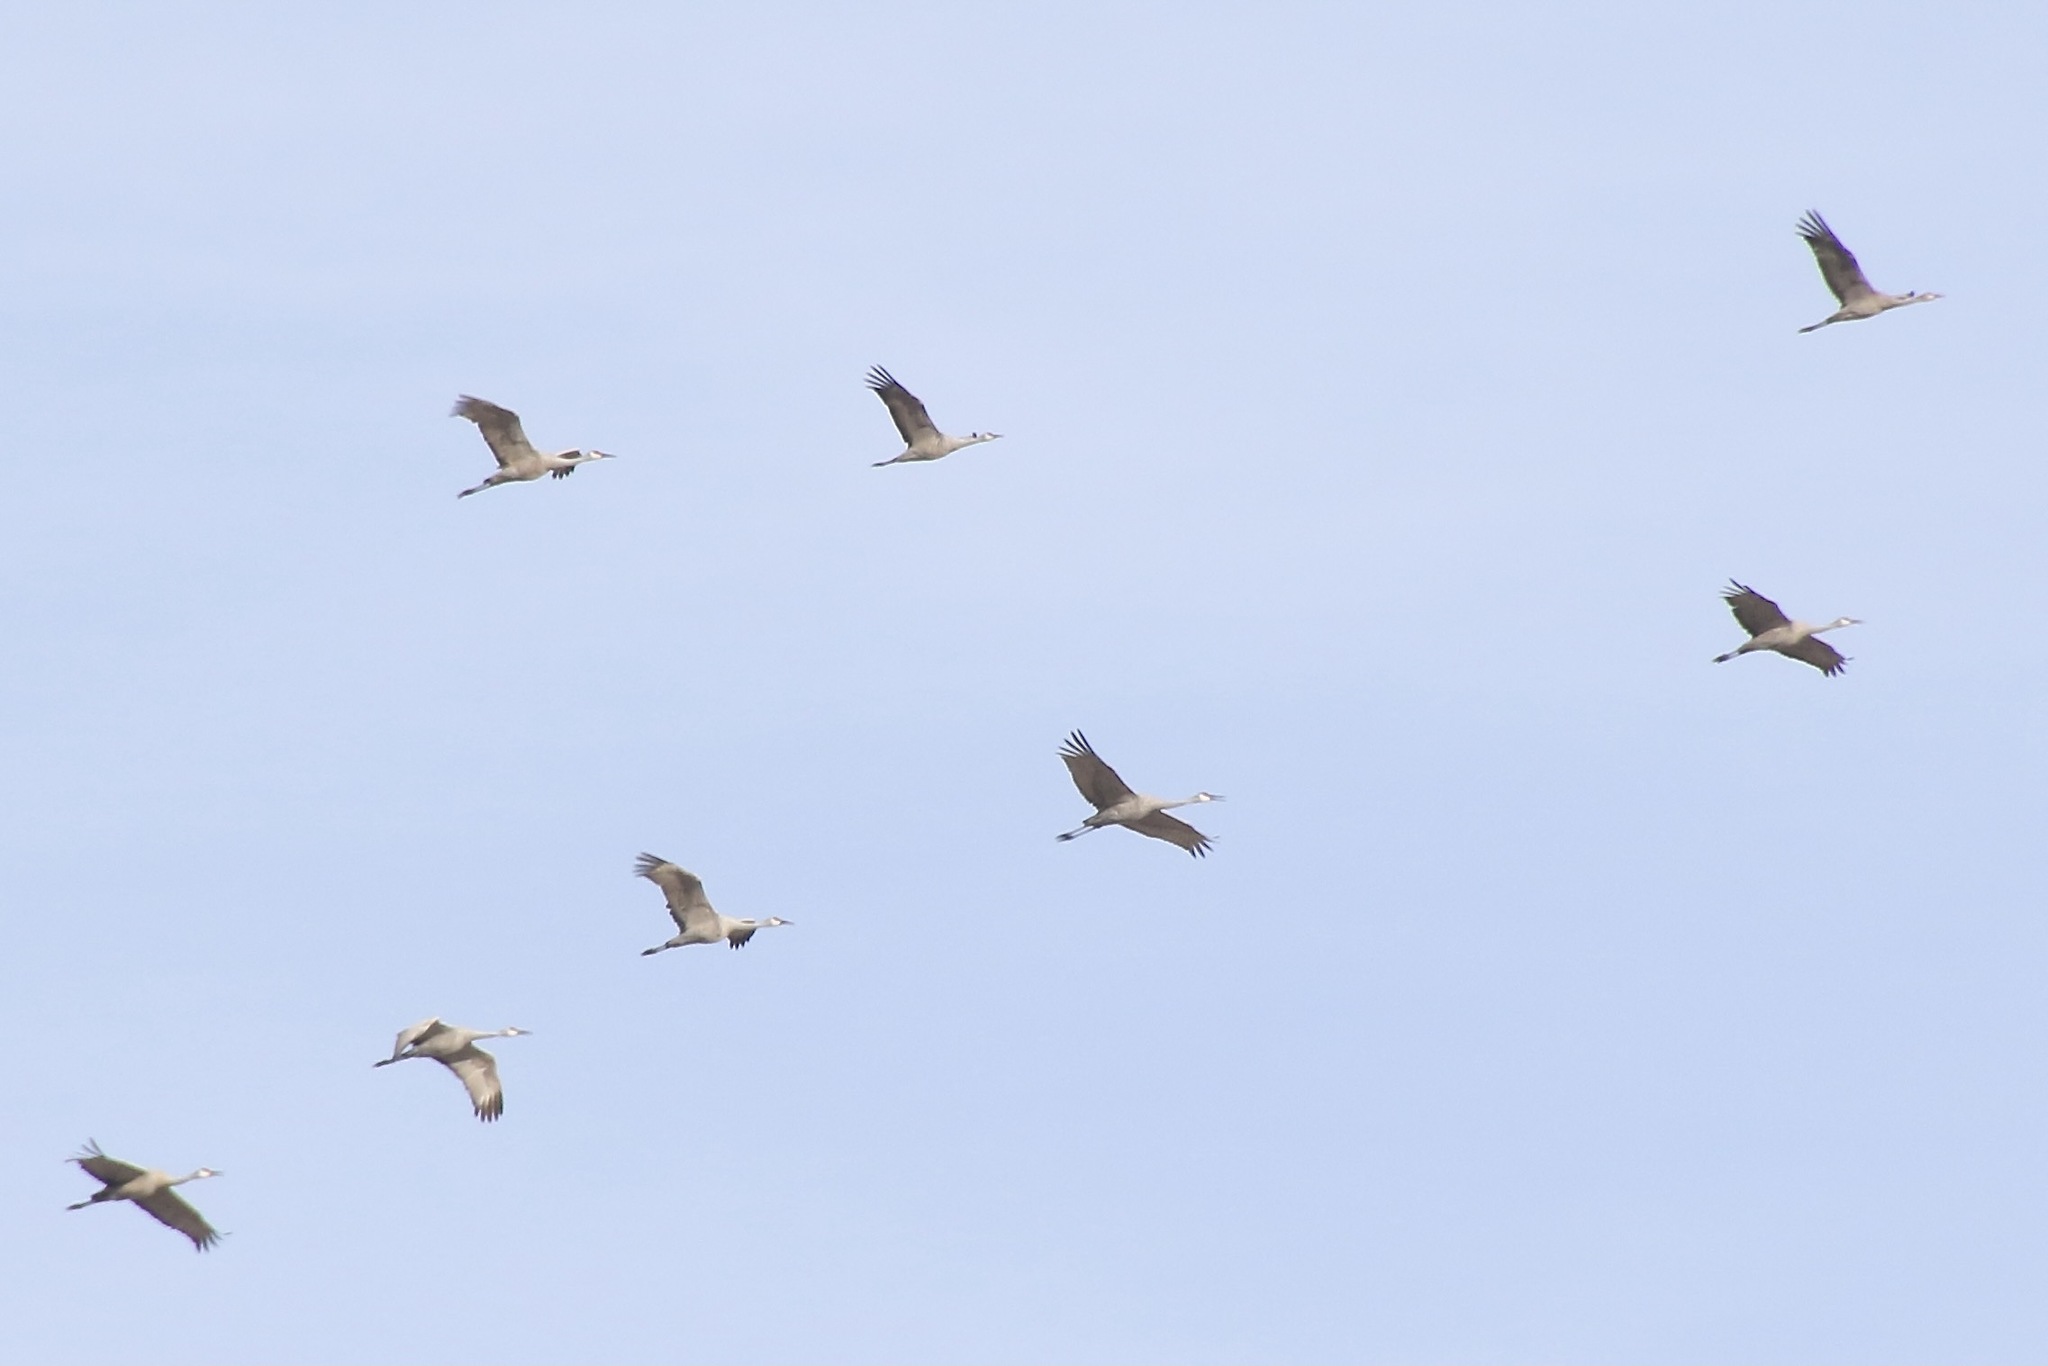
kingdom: Animalia
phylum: Chordata
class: Aves
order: Gruiformes
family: Gruidae
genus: Grus
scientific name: Grus canadensis
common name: Sandhill crane
